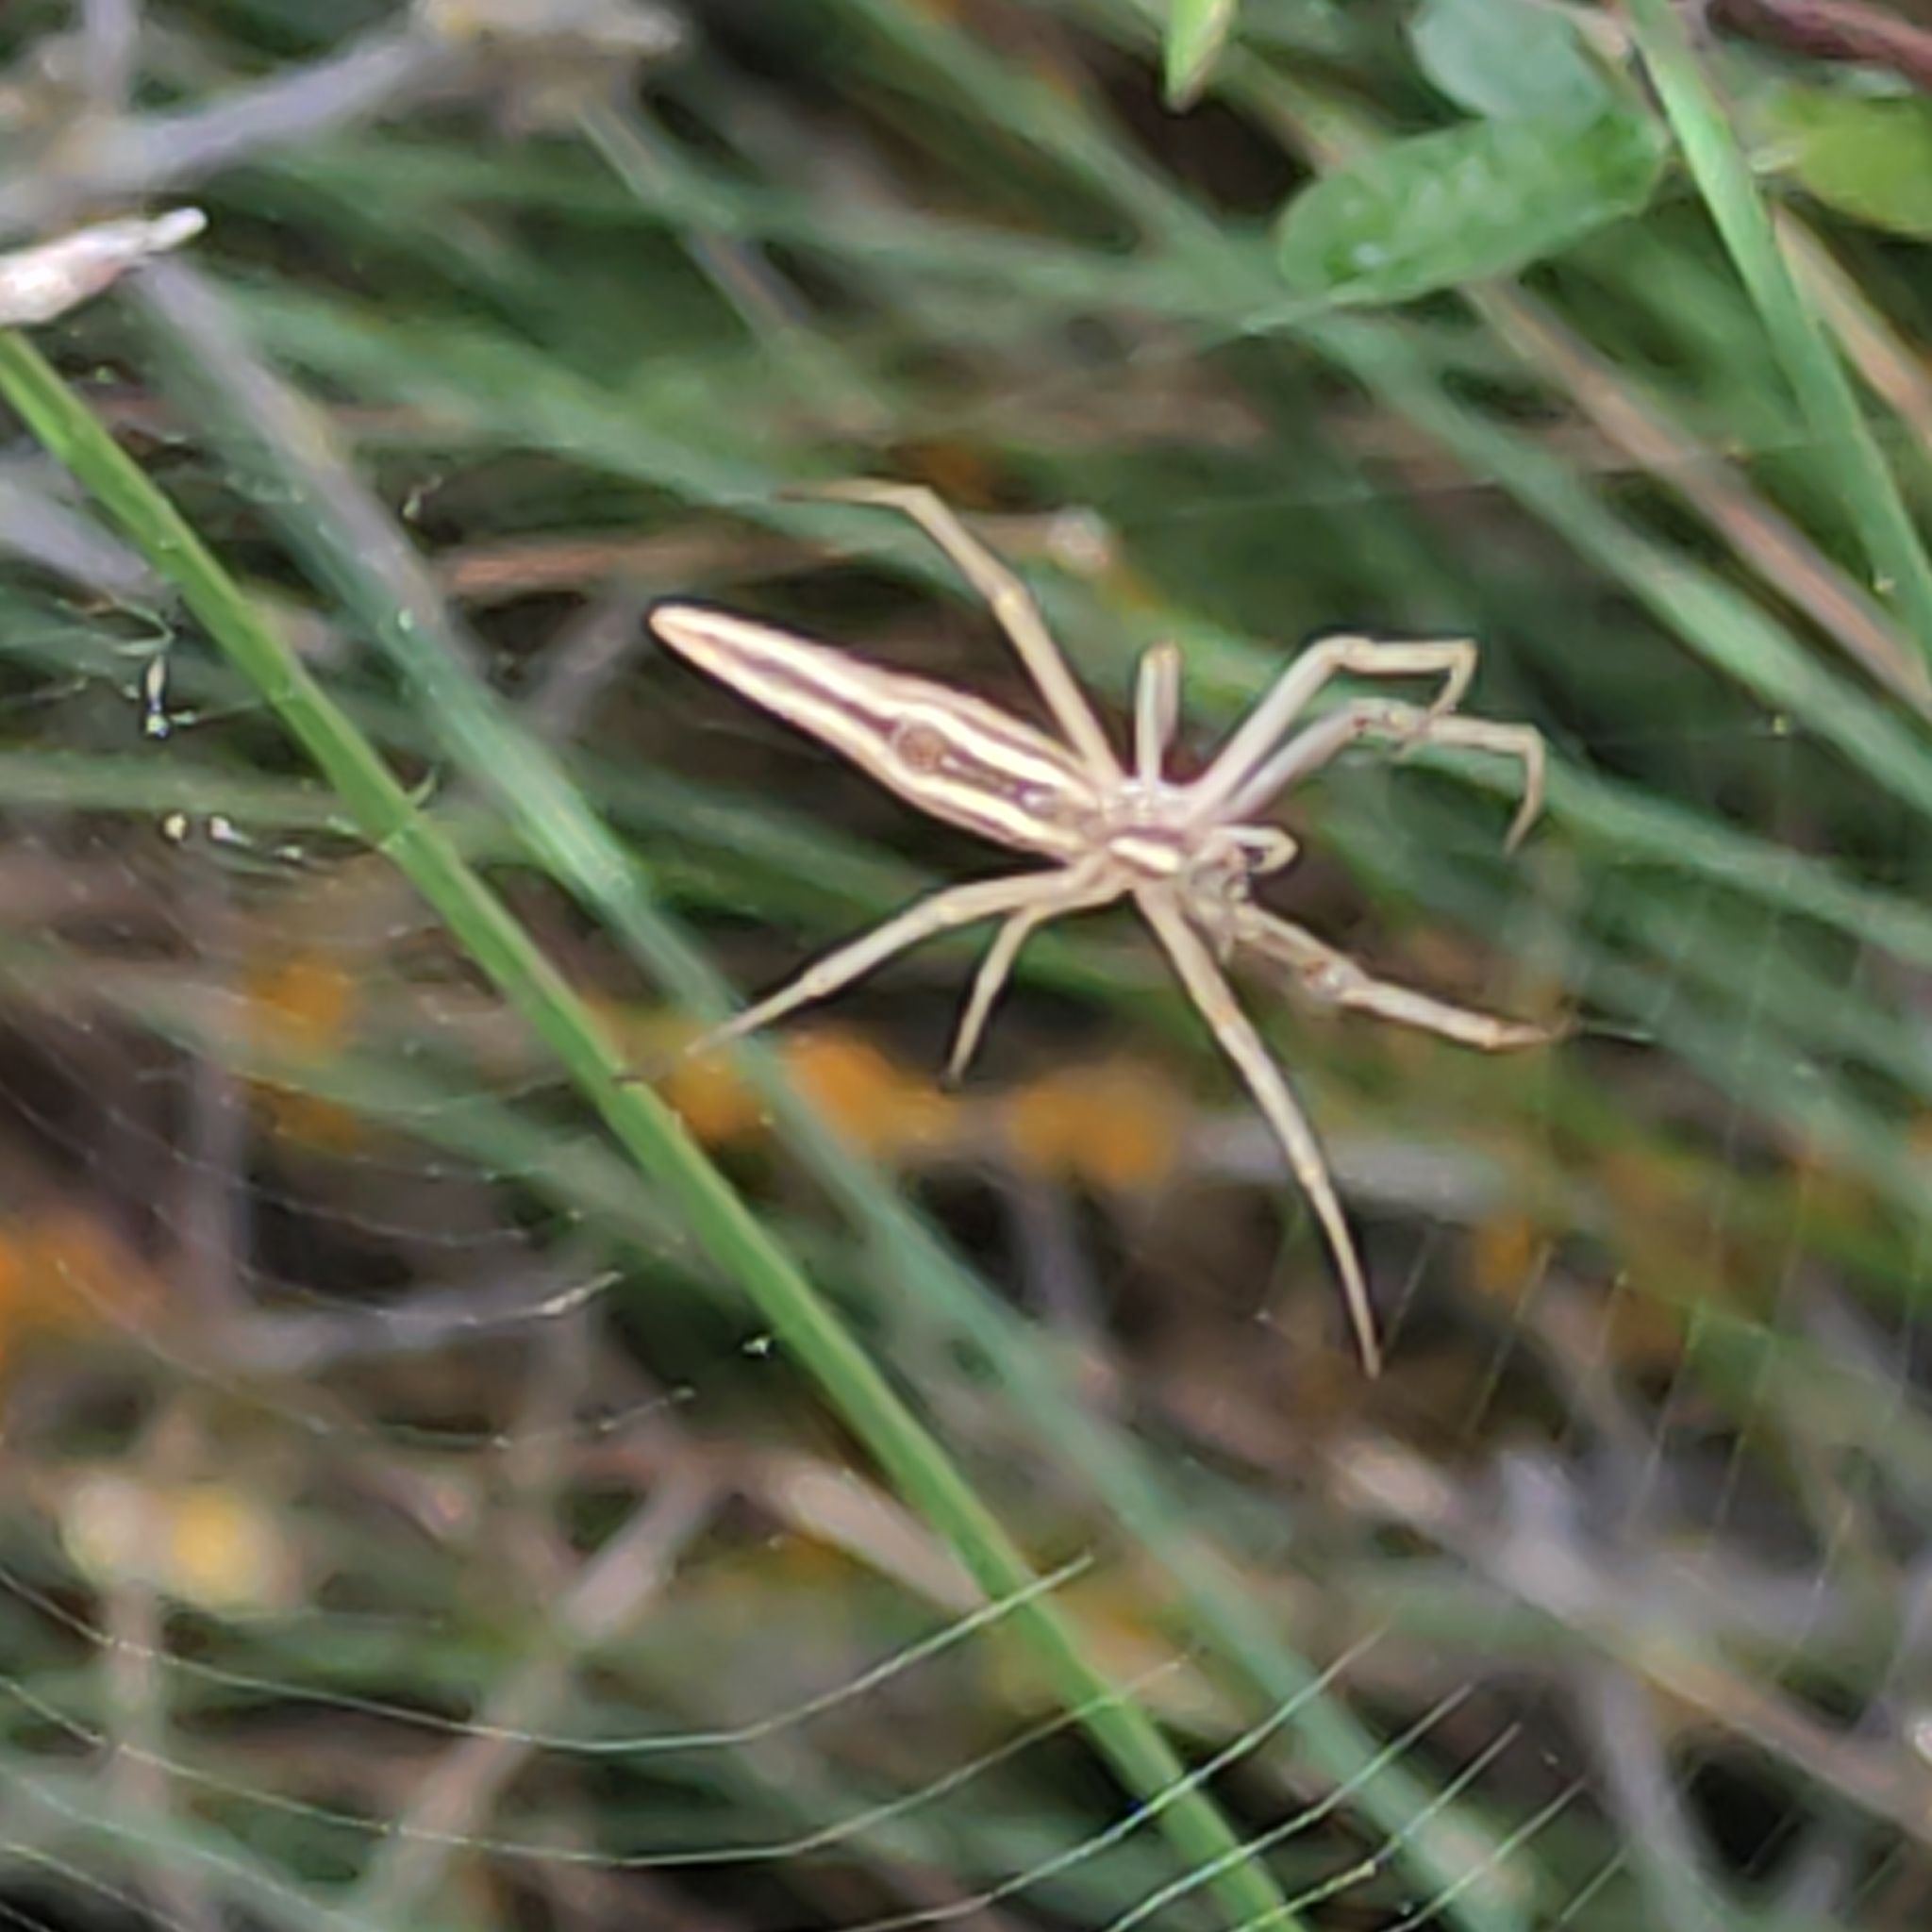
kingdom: Animalia
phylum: Arthropoda
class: Arachnida
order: Araneae
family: Araneidae
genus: Argiope
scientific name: Argiope protensa
